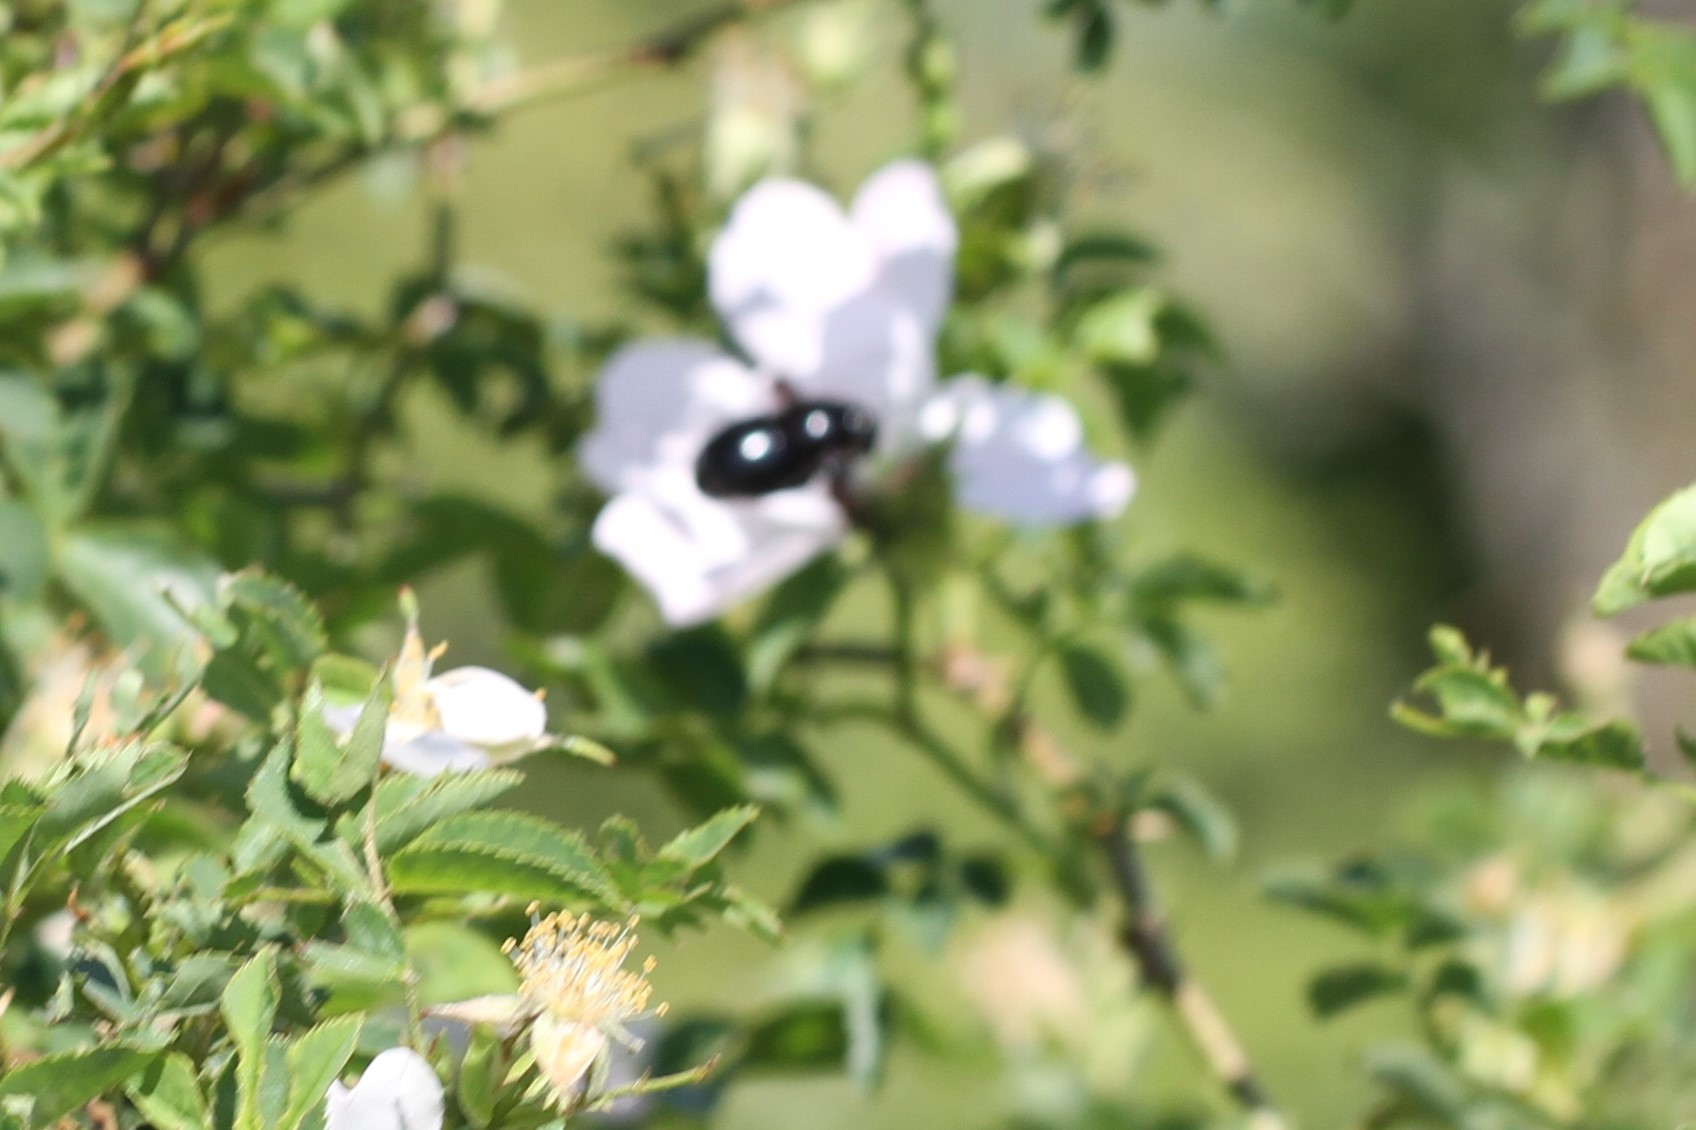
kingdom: Animalia
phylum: Arthropoda
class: Insecta
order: Hymenoptera
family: Apidae
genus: Xylocopa
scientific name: Xylocopa
